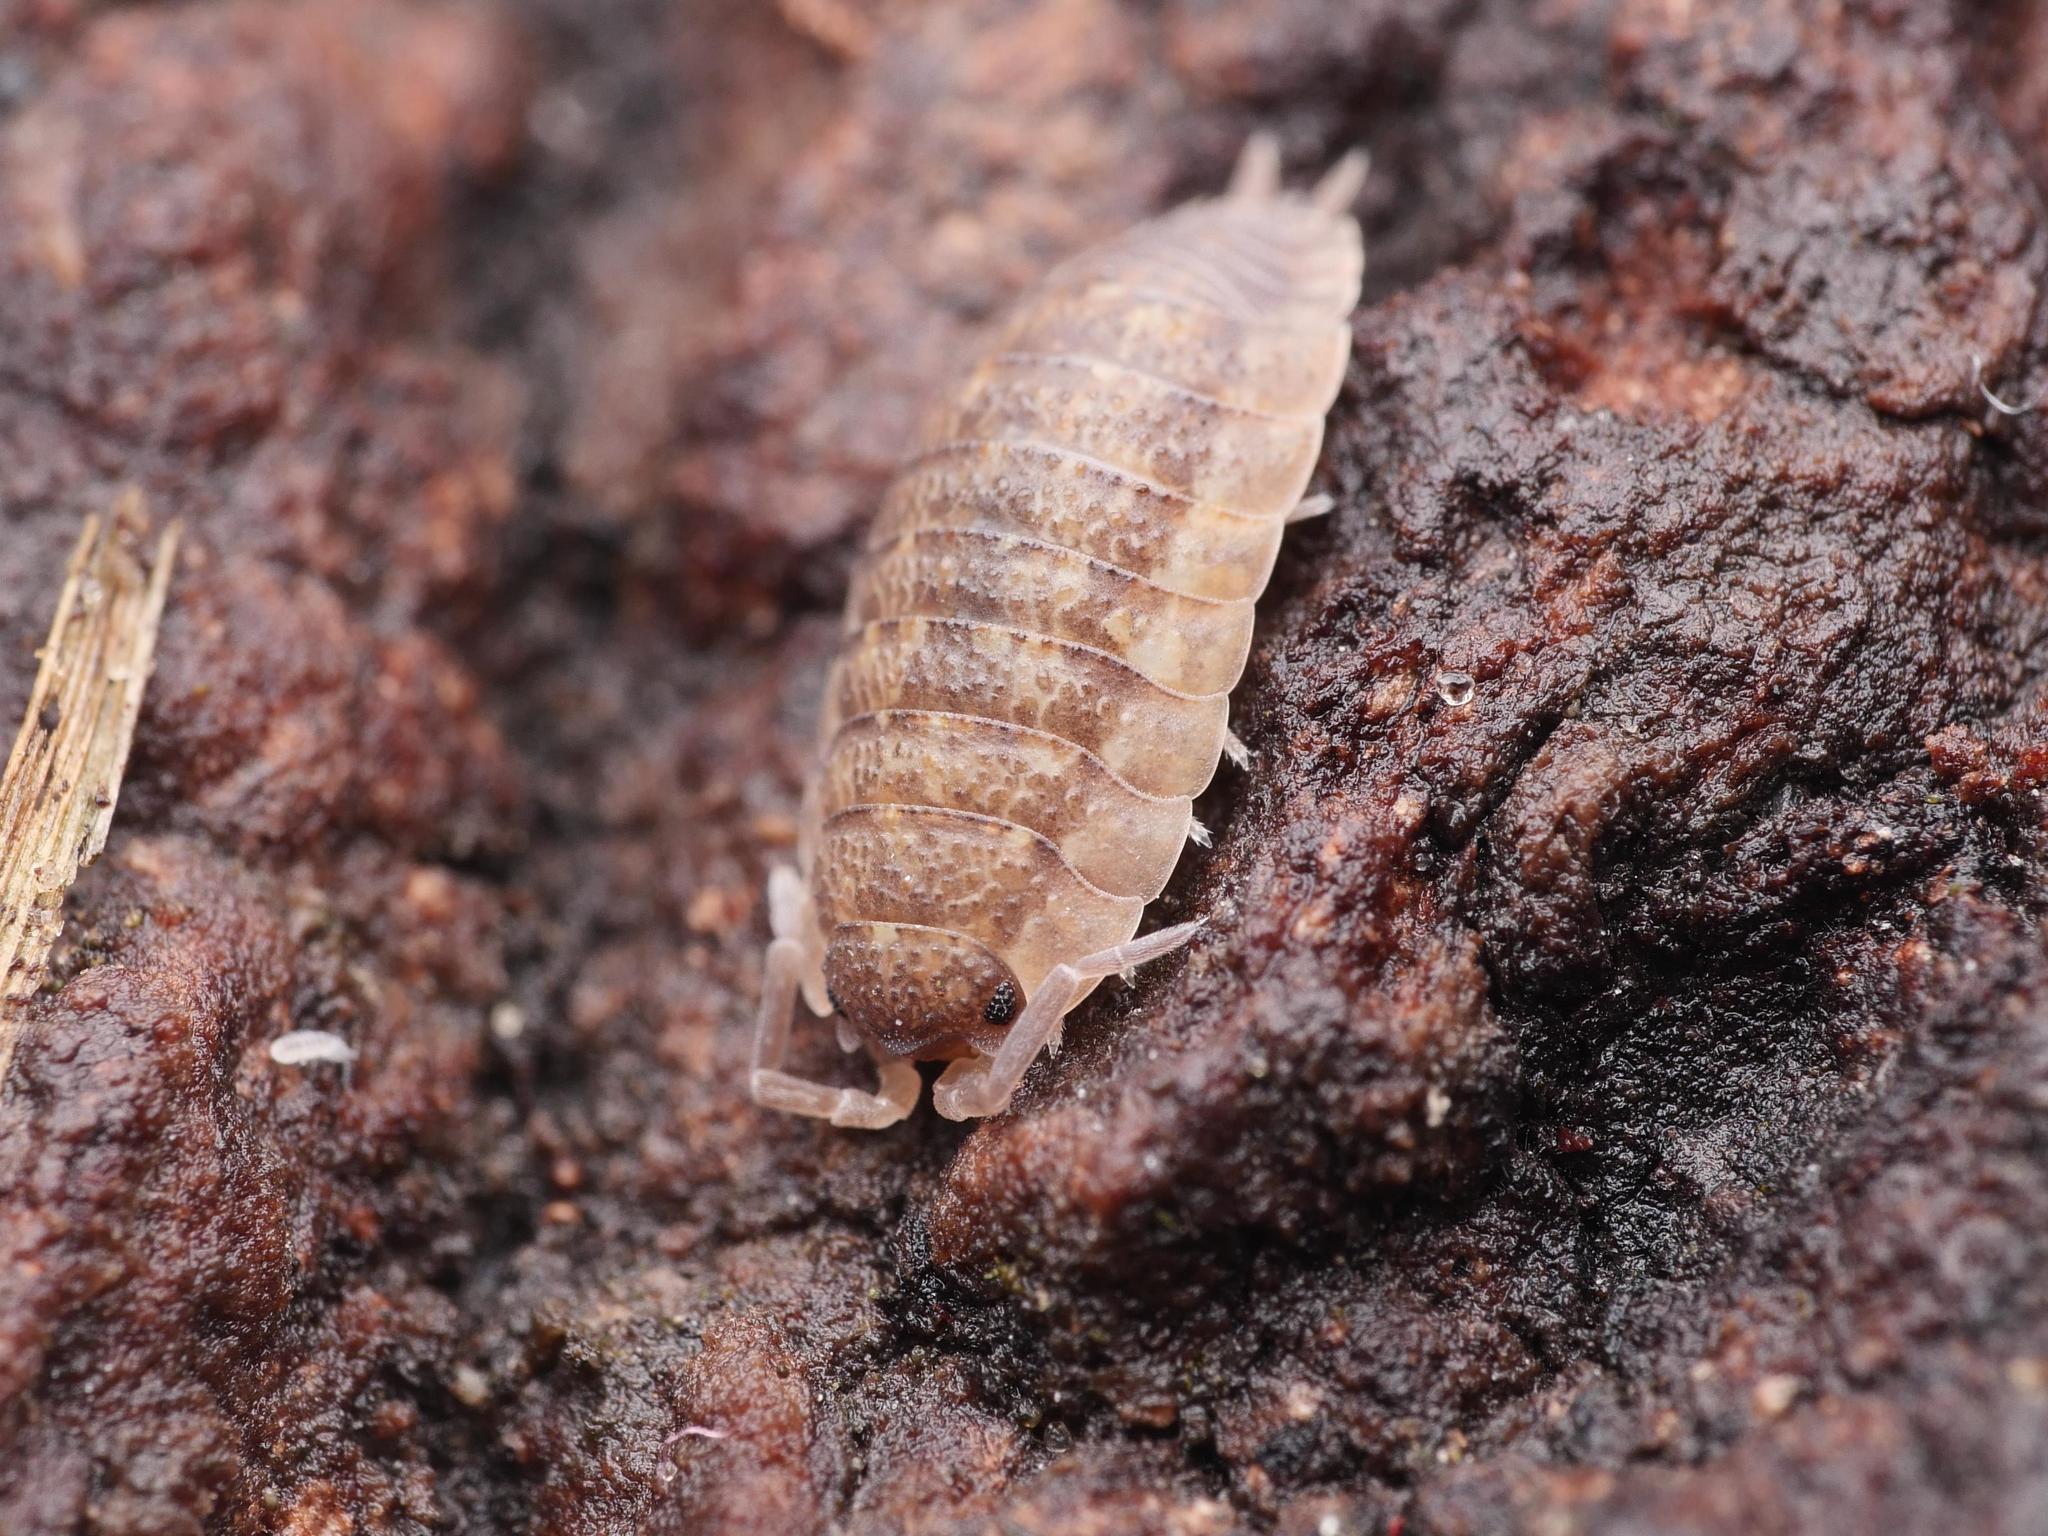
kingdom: Animalia
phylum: Arthropoda
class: Malacostraca
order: Isopoda
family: Porcellionidae
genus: Porcellio
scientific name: Porcellio scaber
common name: Common rough woodlouse
